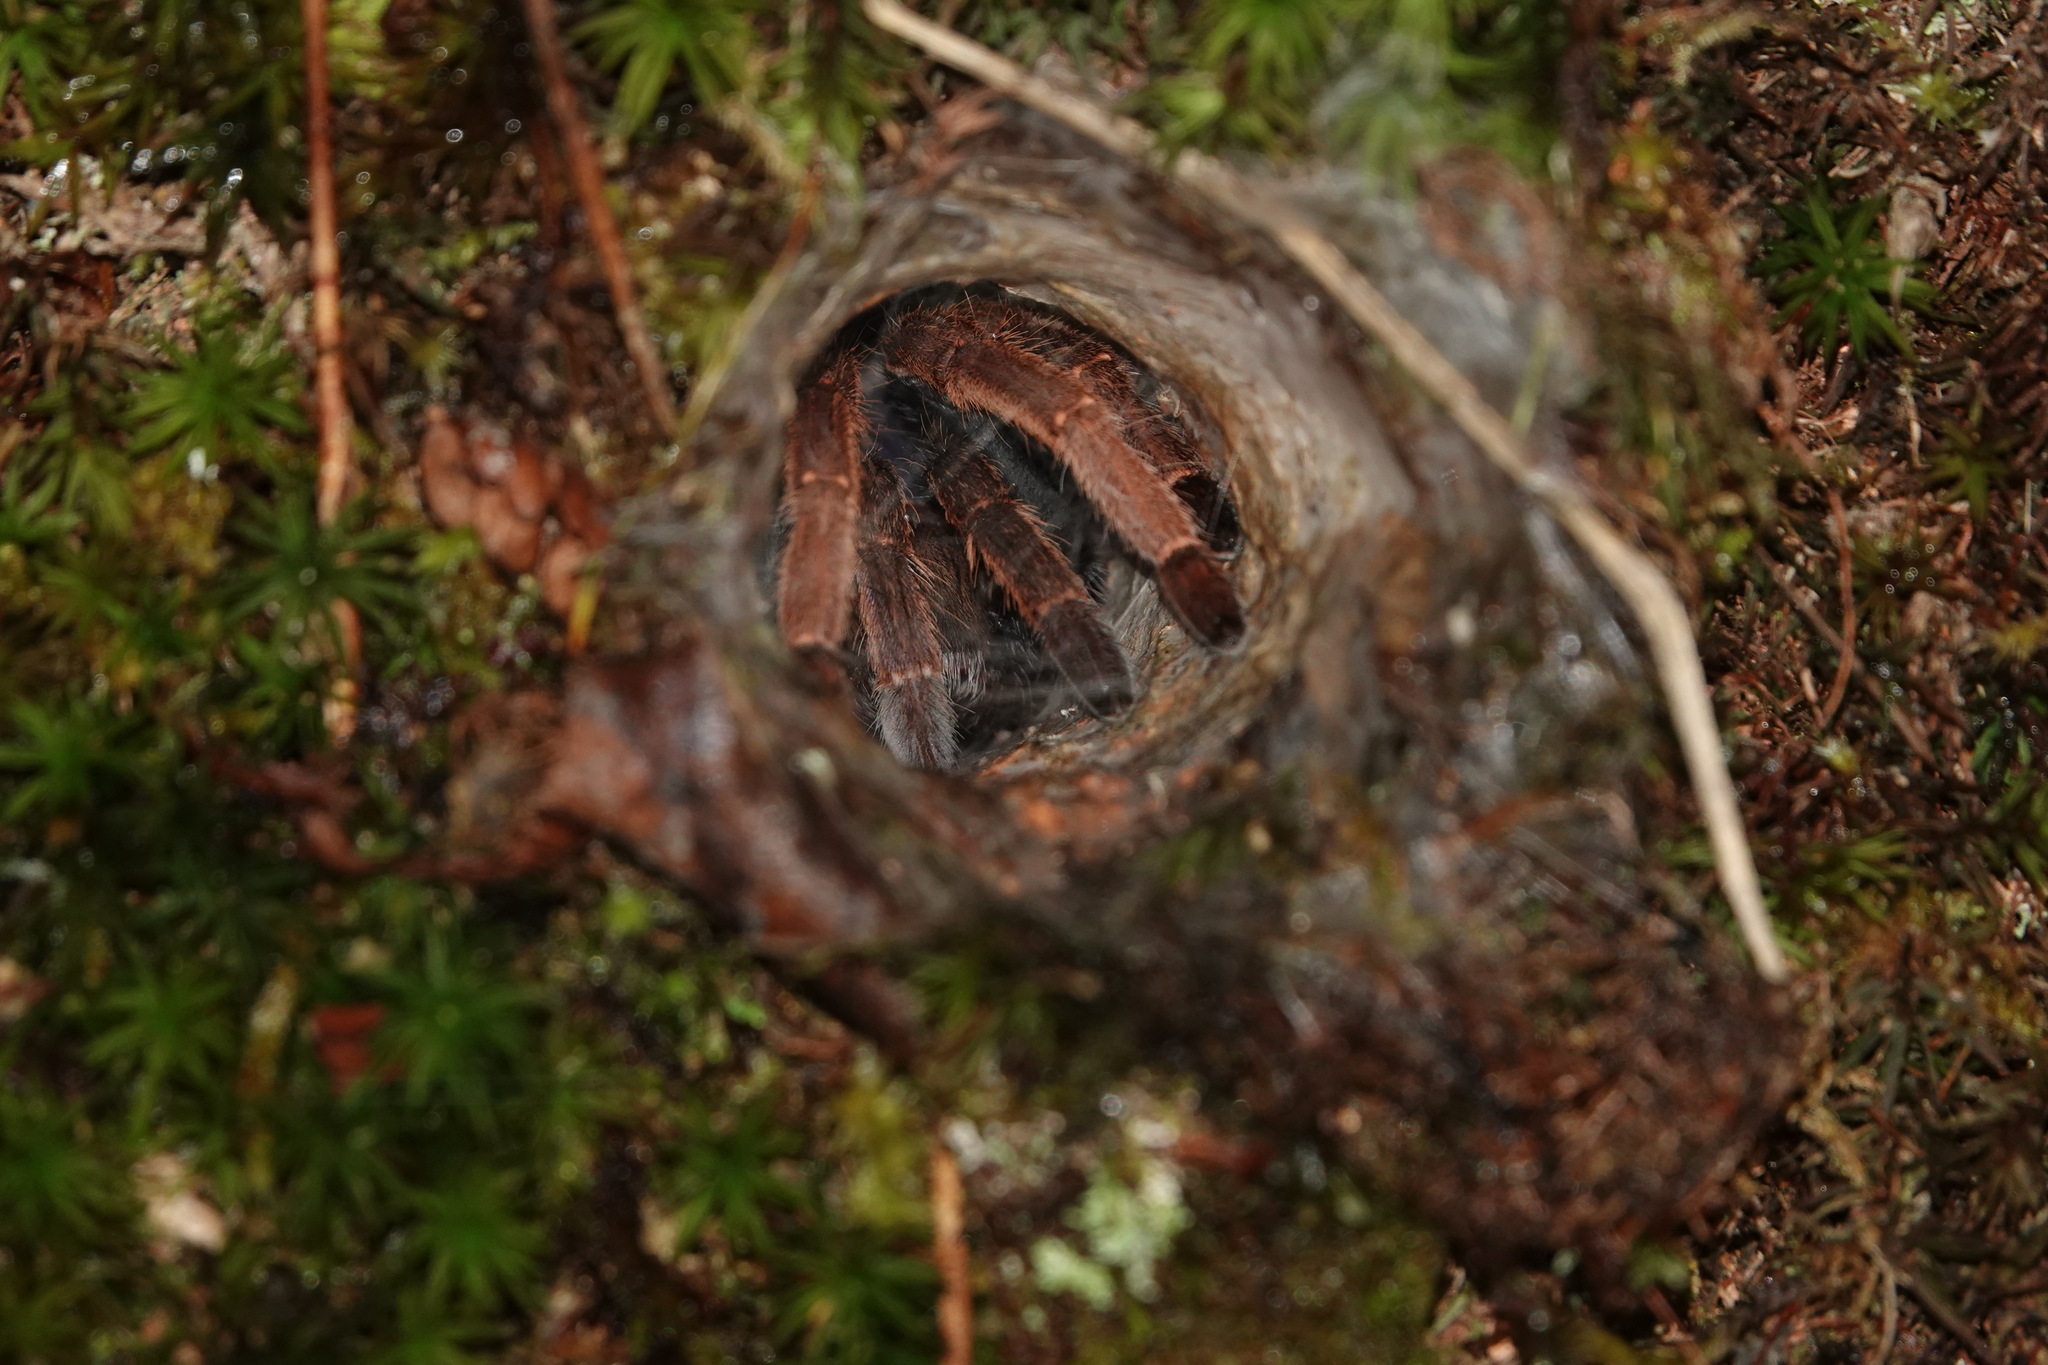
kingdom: Animalia
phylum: Arthropoda
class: Arachnida
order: Araneae
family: Theraphosidae
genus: Coremiocnemis
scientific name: Coremiocnemis hoggi
